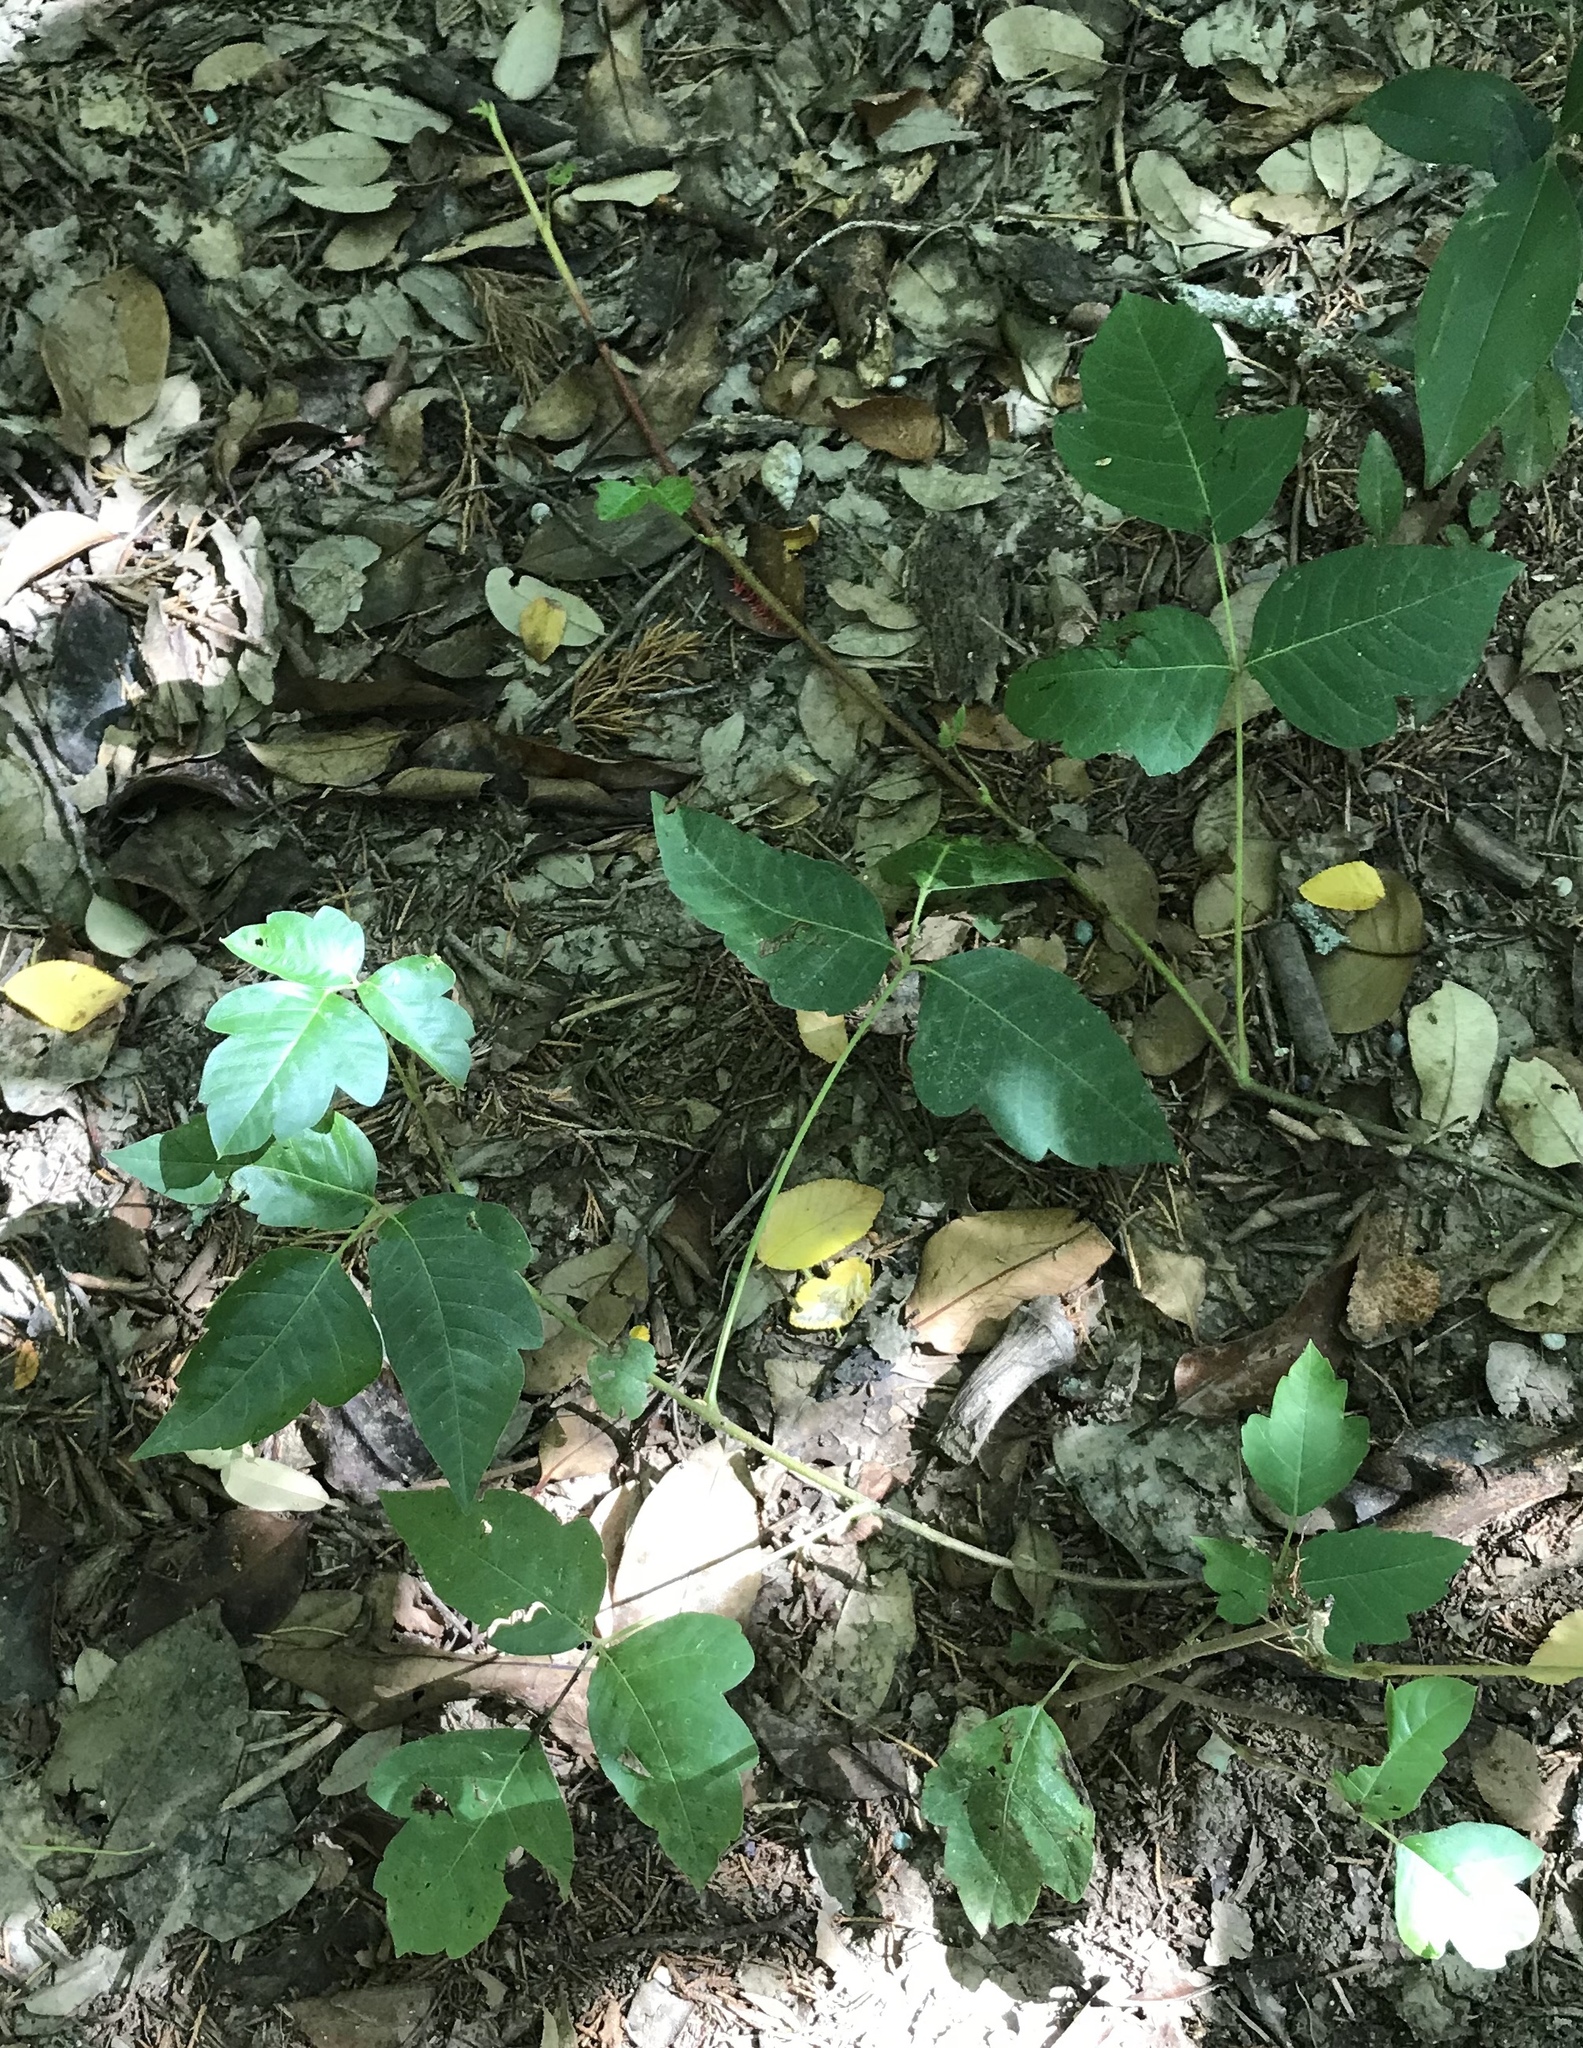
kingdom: Plantae
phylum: Tracheophyta
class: Magnoliopsida
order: Sapindales
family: Anacardiaceae
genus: Toxicodendron
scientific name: Toxicodendron radicans
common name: Poison ivy
